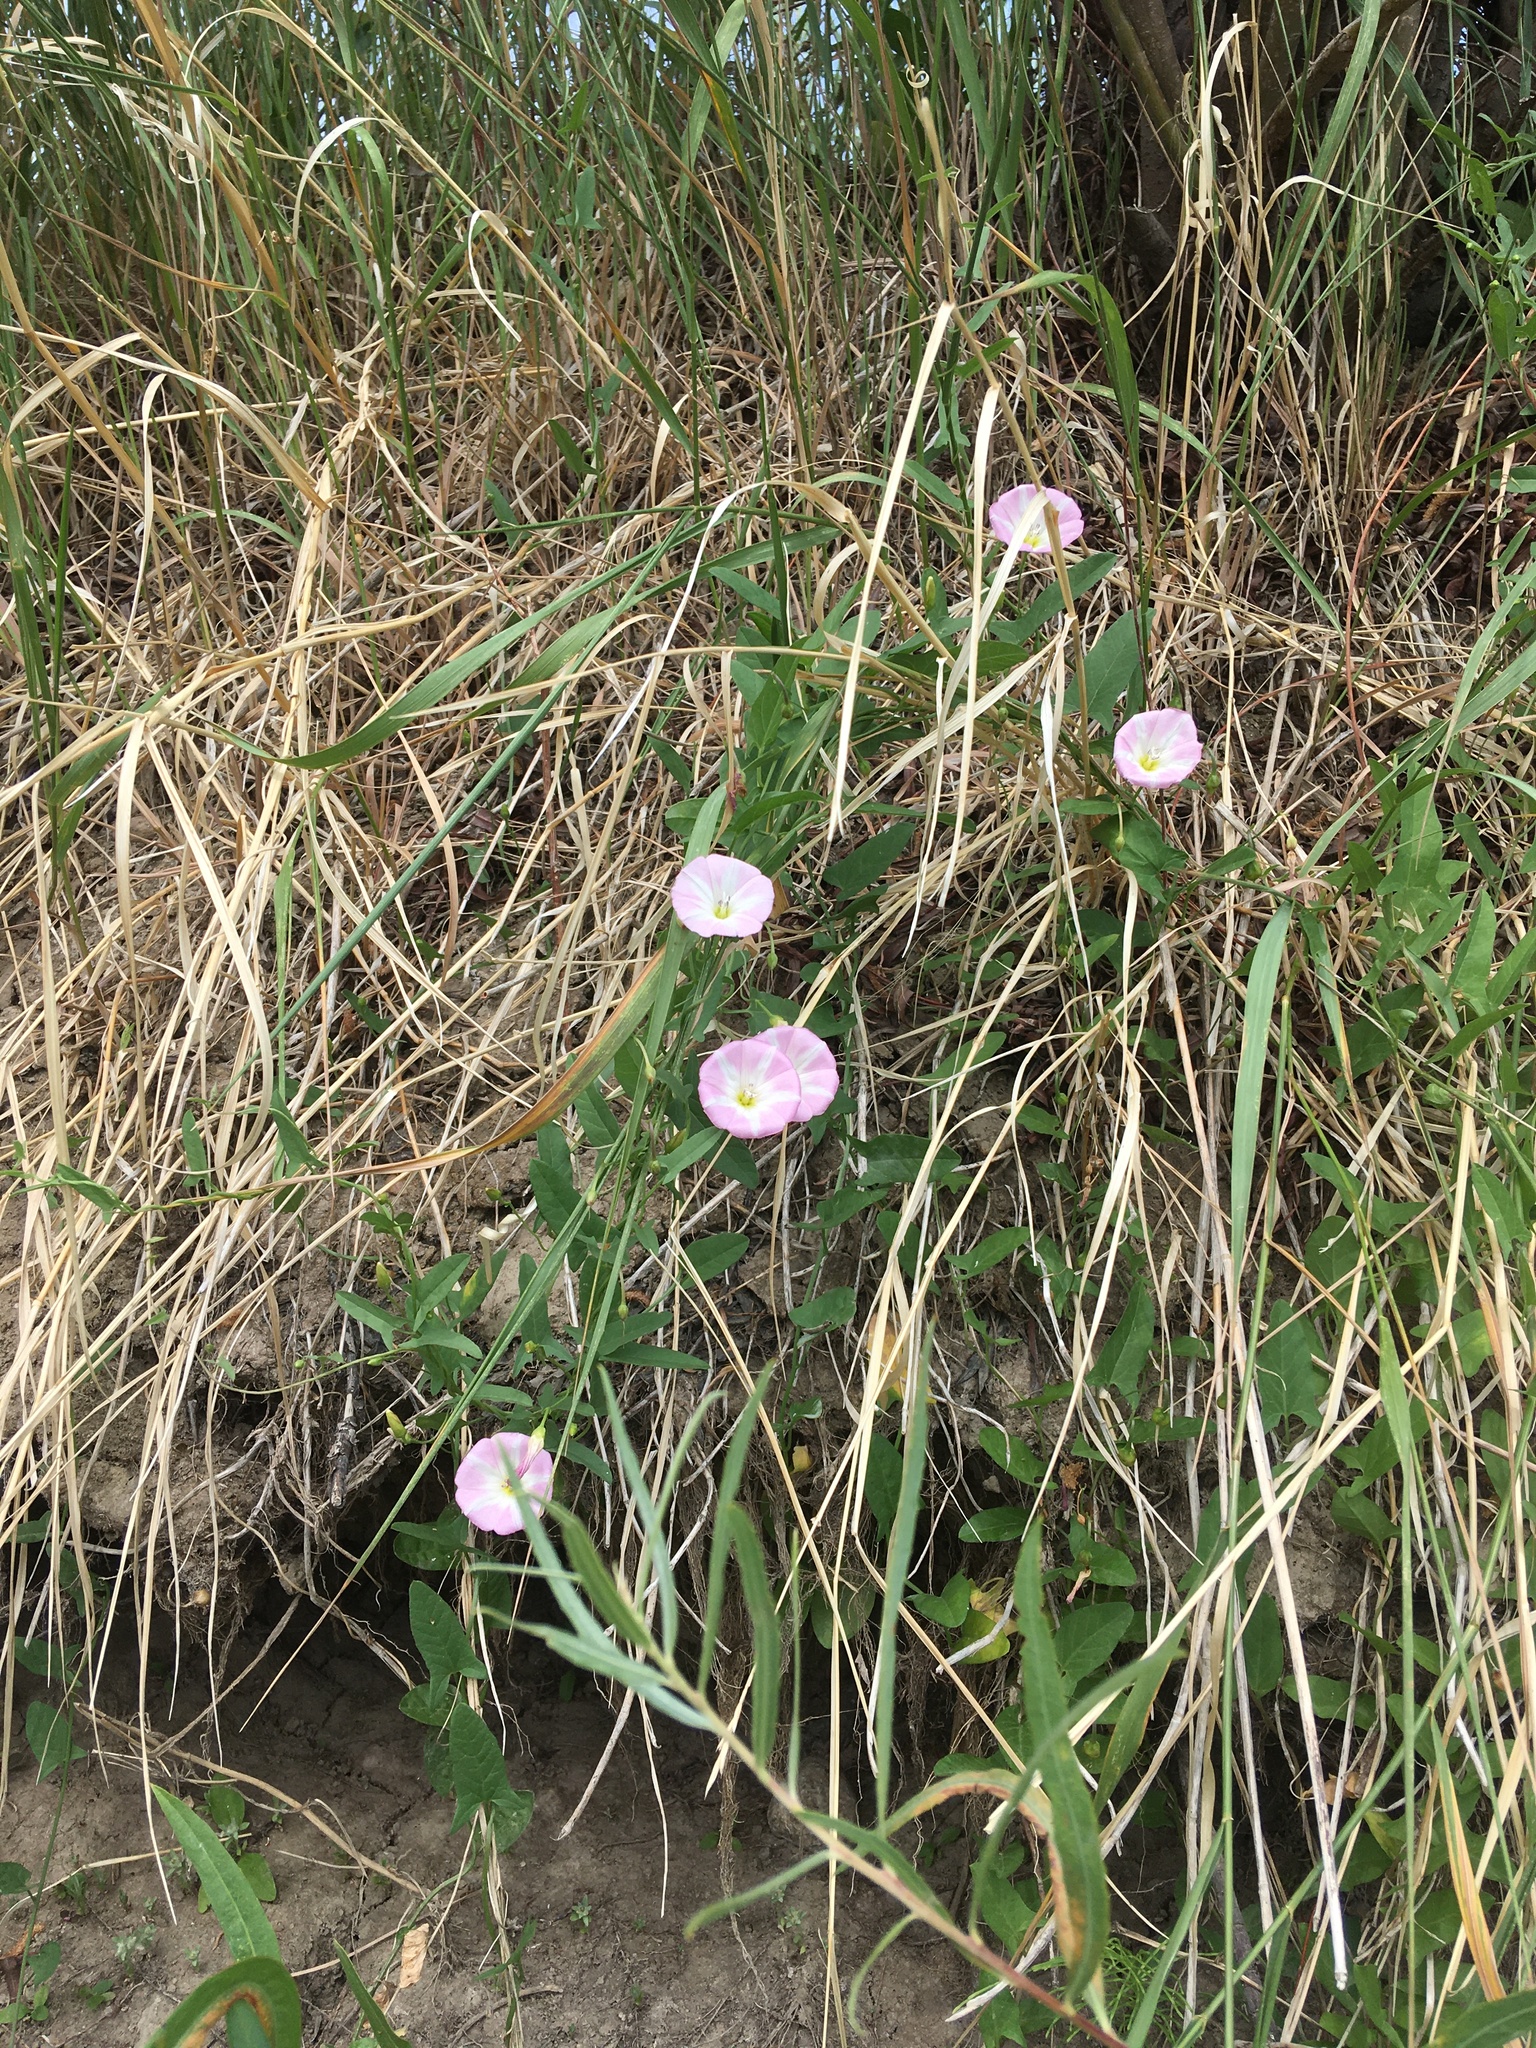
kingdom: Plantae
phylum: Tracheophyta
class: Magnoliopsida
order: Solanales
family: Convolvulaceae
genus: Convolvulus
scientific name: Convolvulus arvensis
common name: Field bindweed
